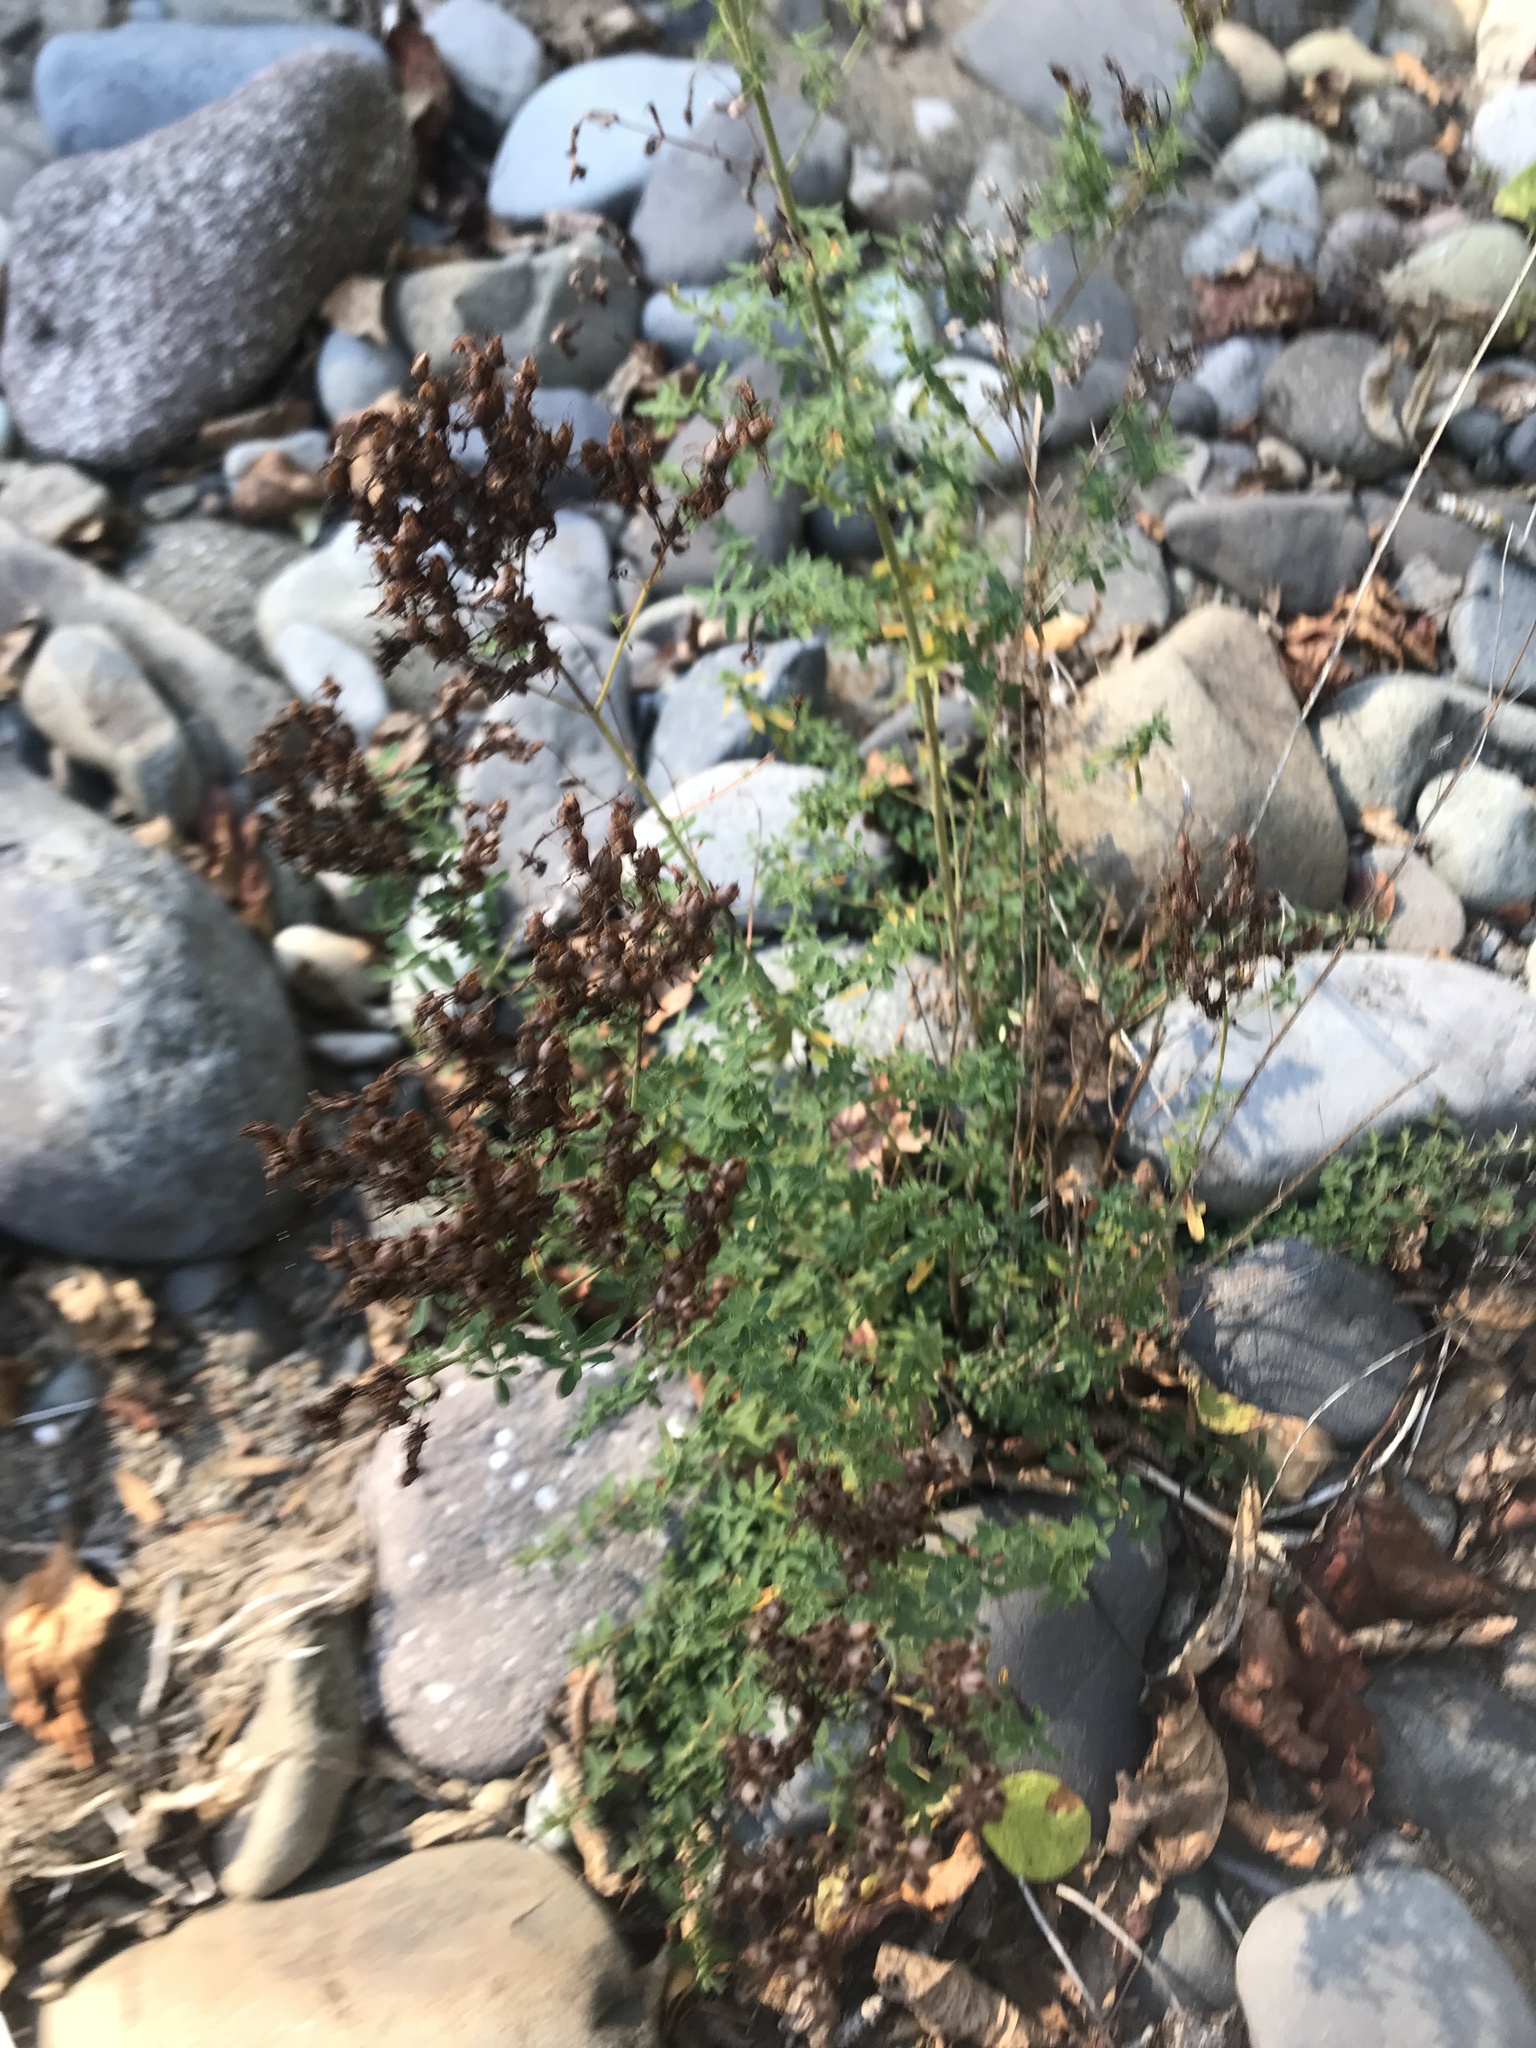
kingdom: Plantae
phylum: Tracheophyta
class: Magnoliopsida
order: Malpighiales
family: Hypericaceae
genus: Hypericum
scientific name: Hypericum perforatum
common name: Common st. johnswort
